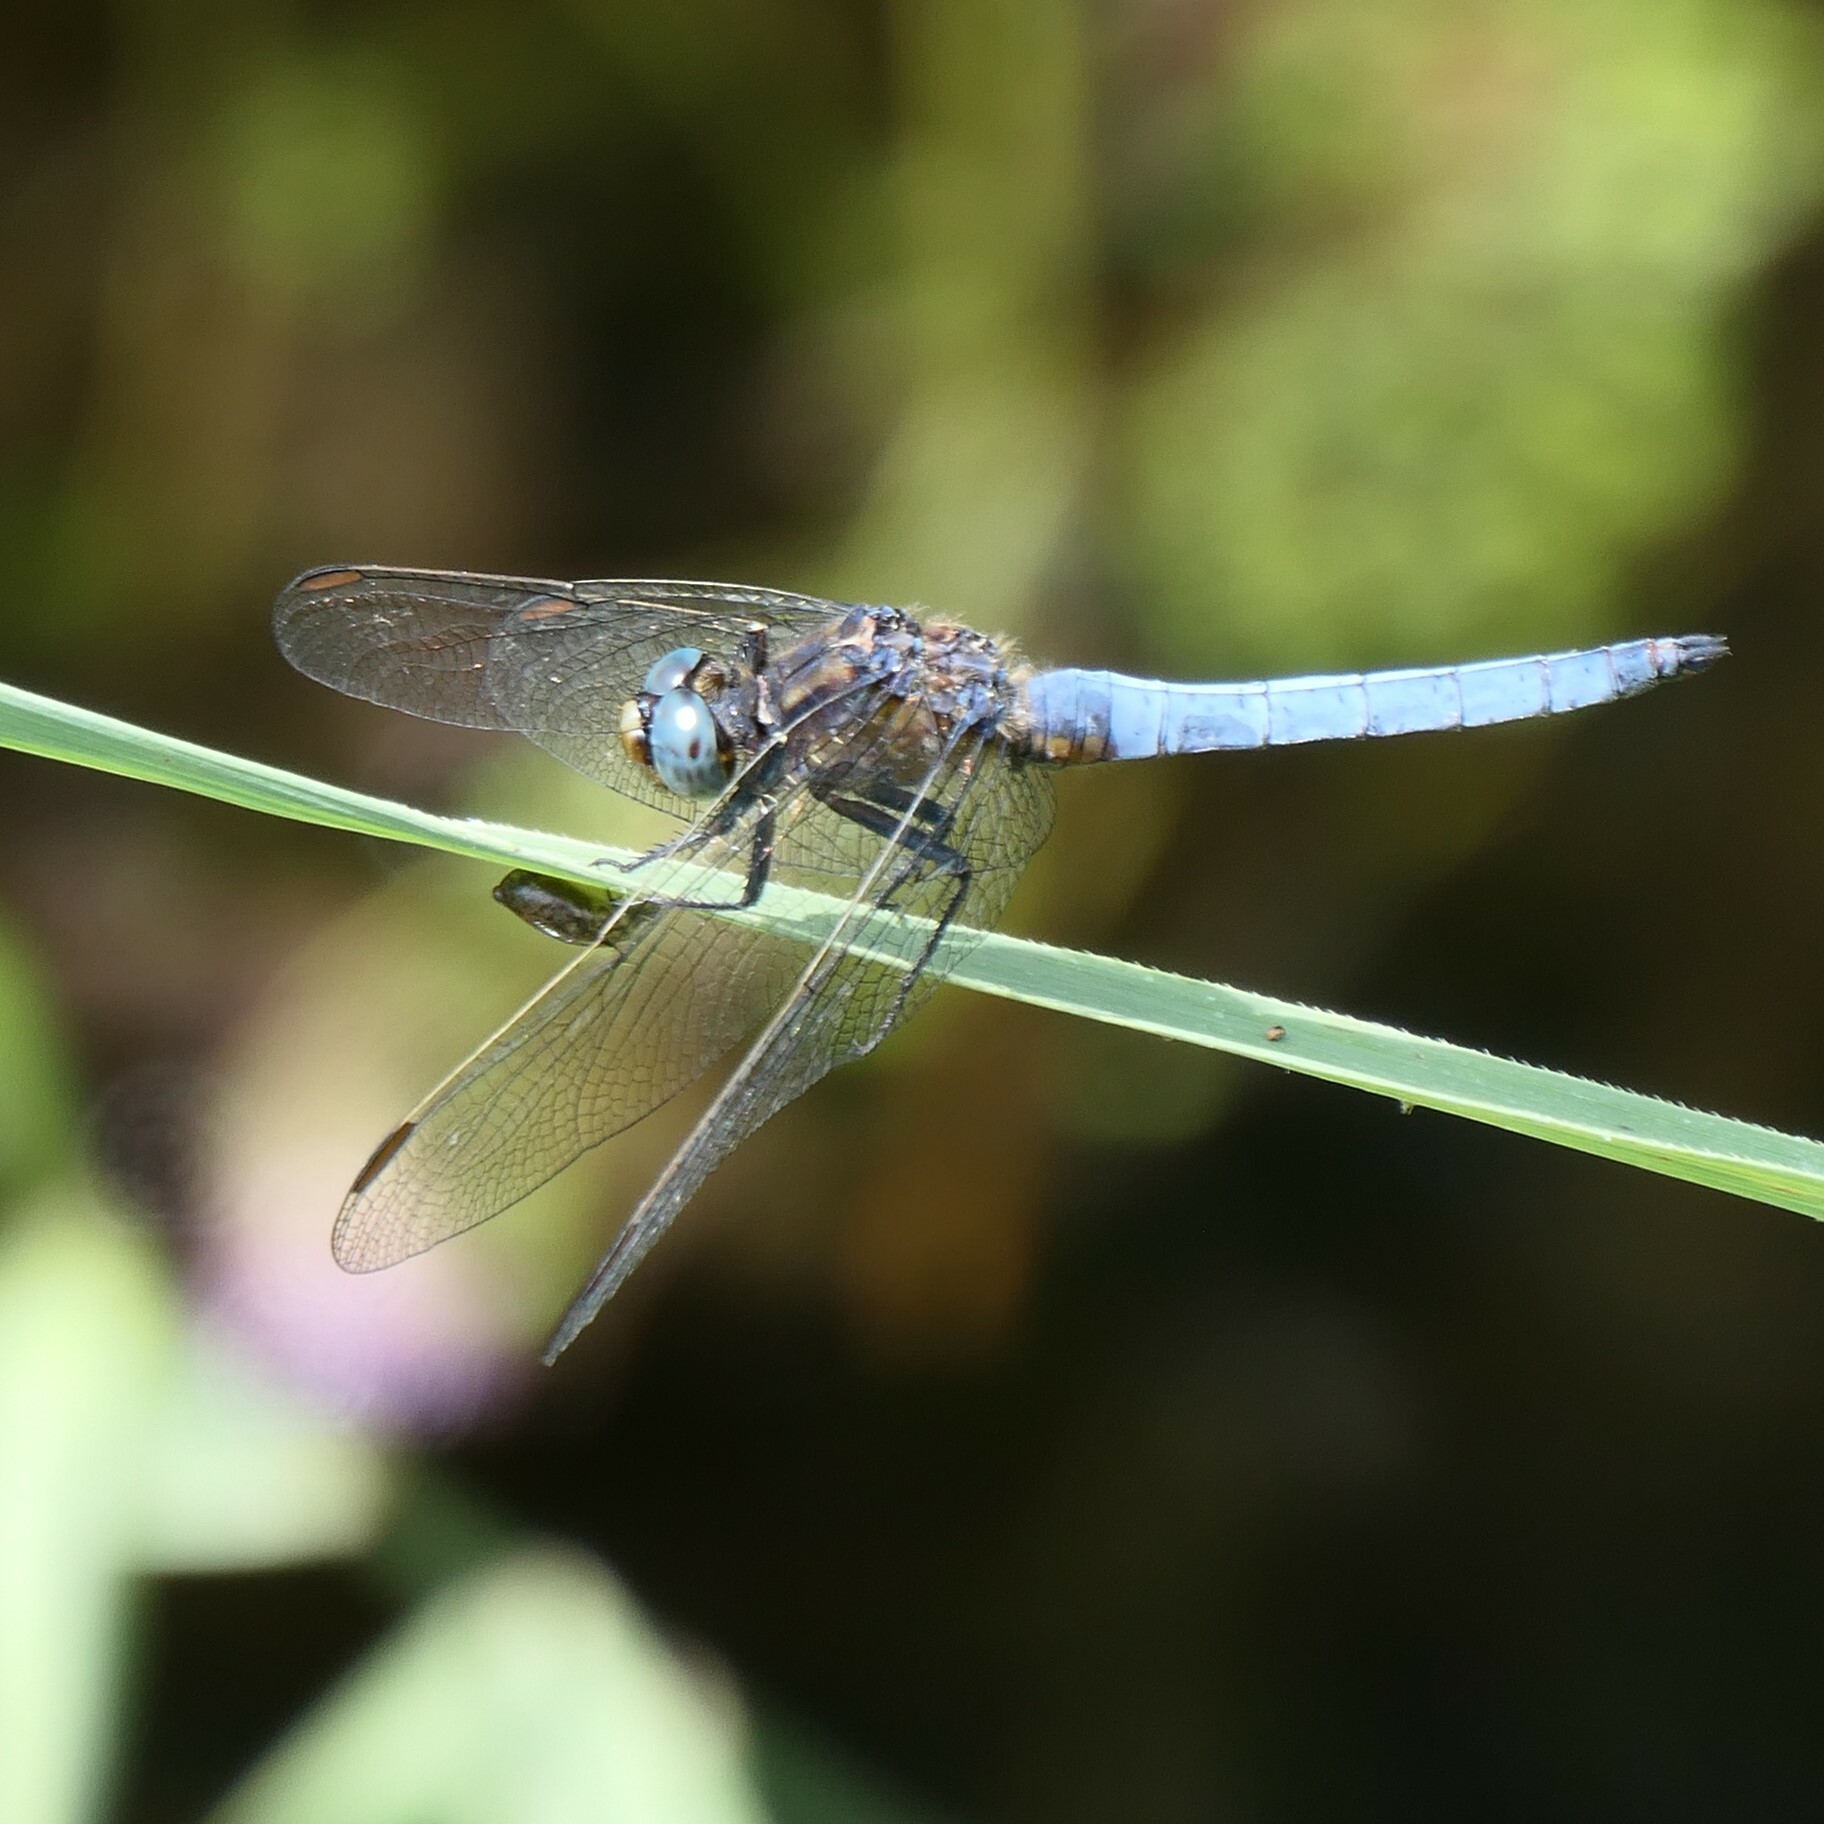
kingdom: Animalia
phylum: Arthropoda
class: Insecta
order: Odonata
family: Libellulidae
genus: Orthetrum
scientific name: Orthetrum coerulescens
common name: Keeled skimmer
